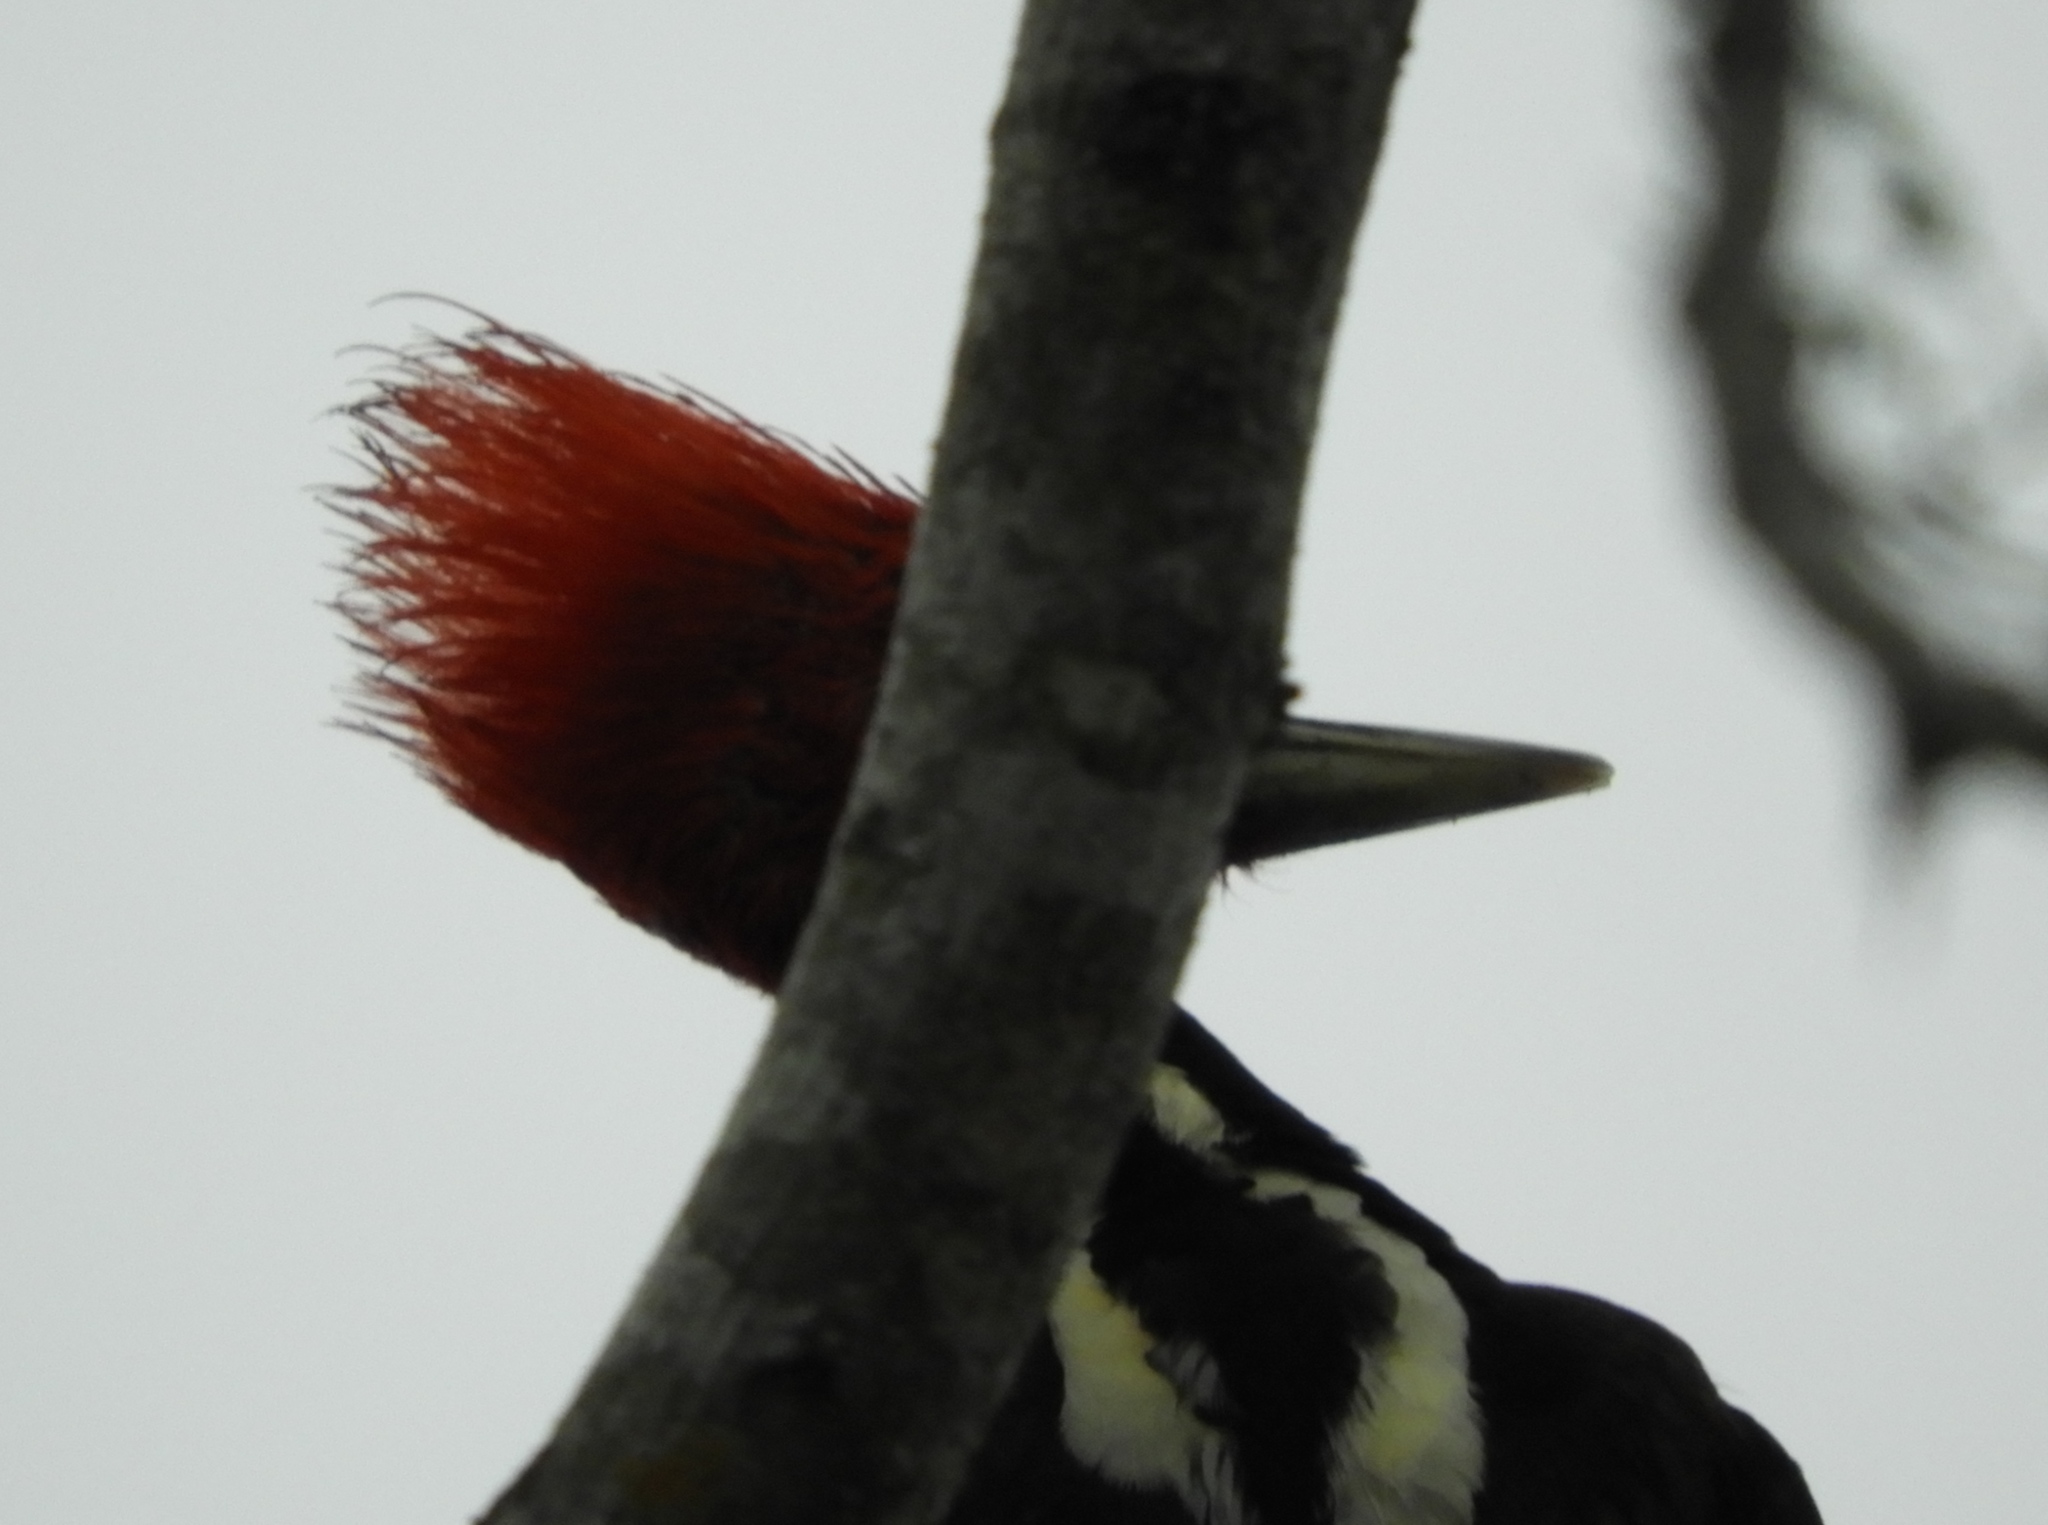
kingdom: Animalia
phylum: Chordata
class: Aves
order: Piciformes
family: Picidae
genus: Dryocopus
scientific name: Dryocopus lineatus
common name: Lineated woodpecker
